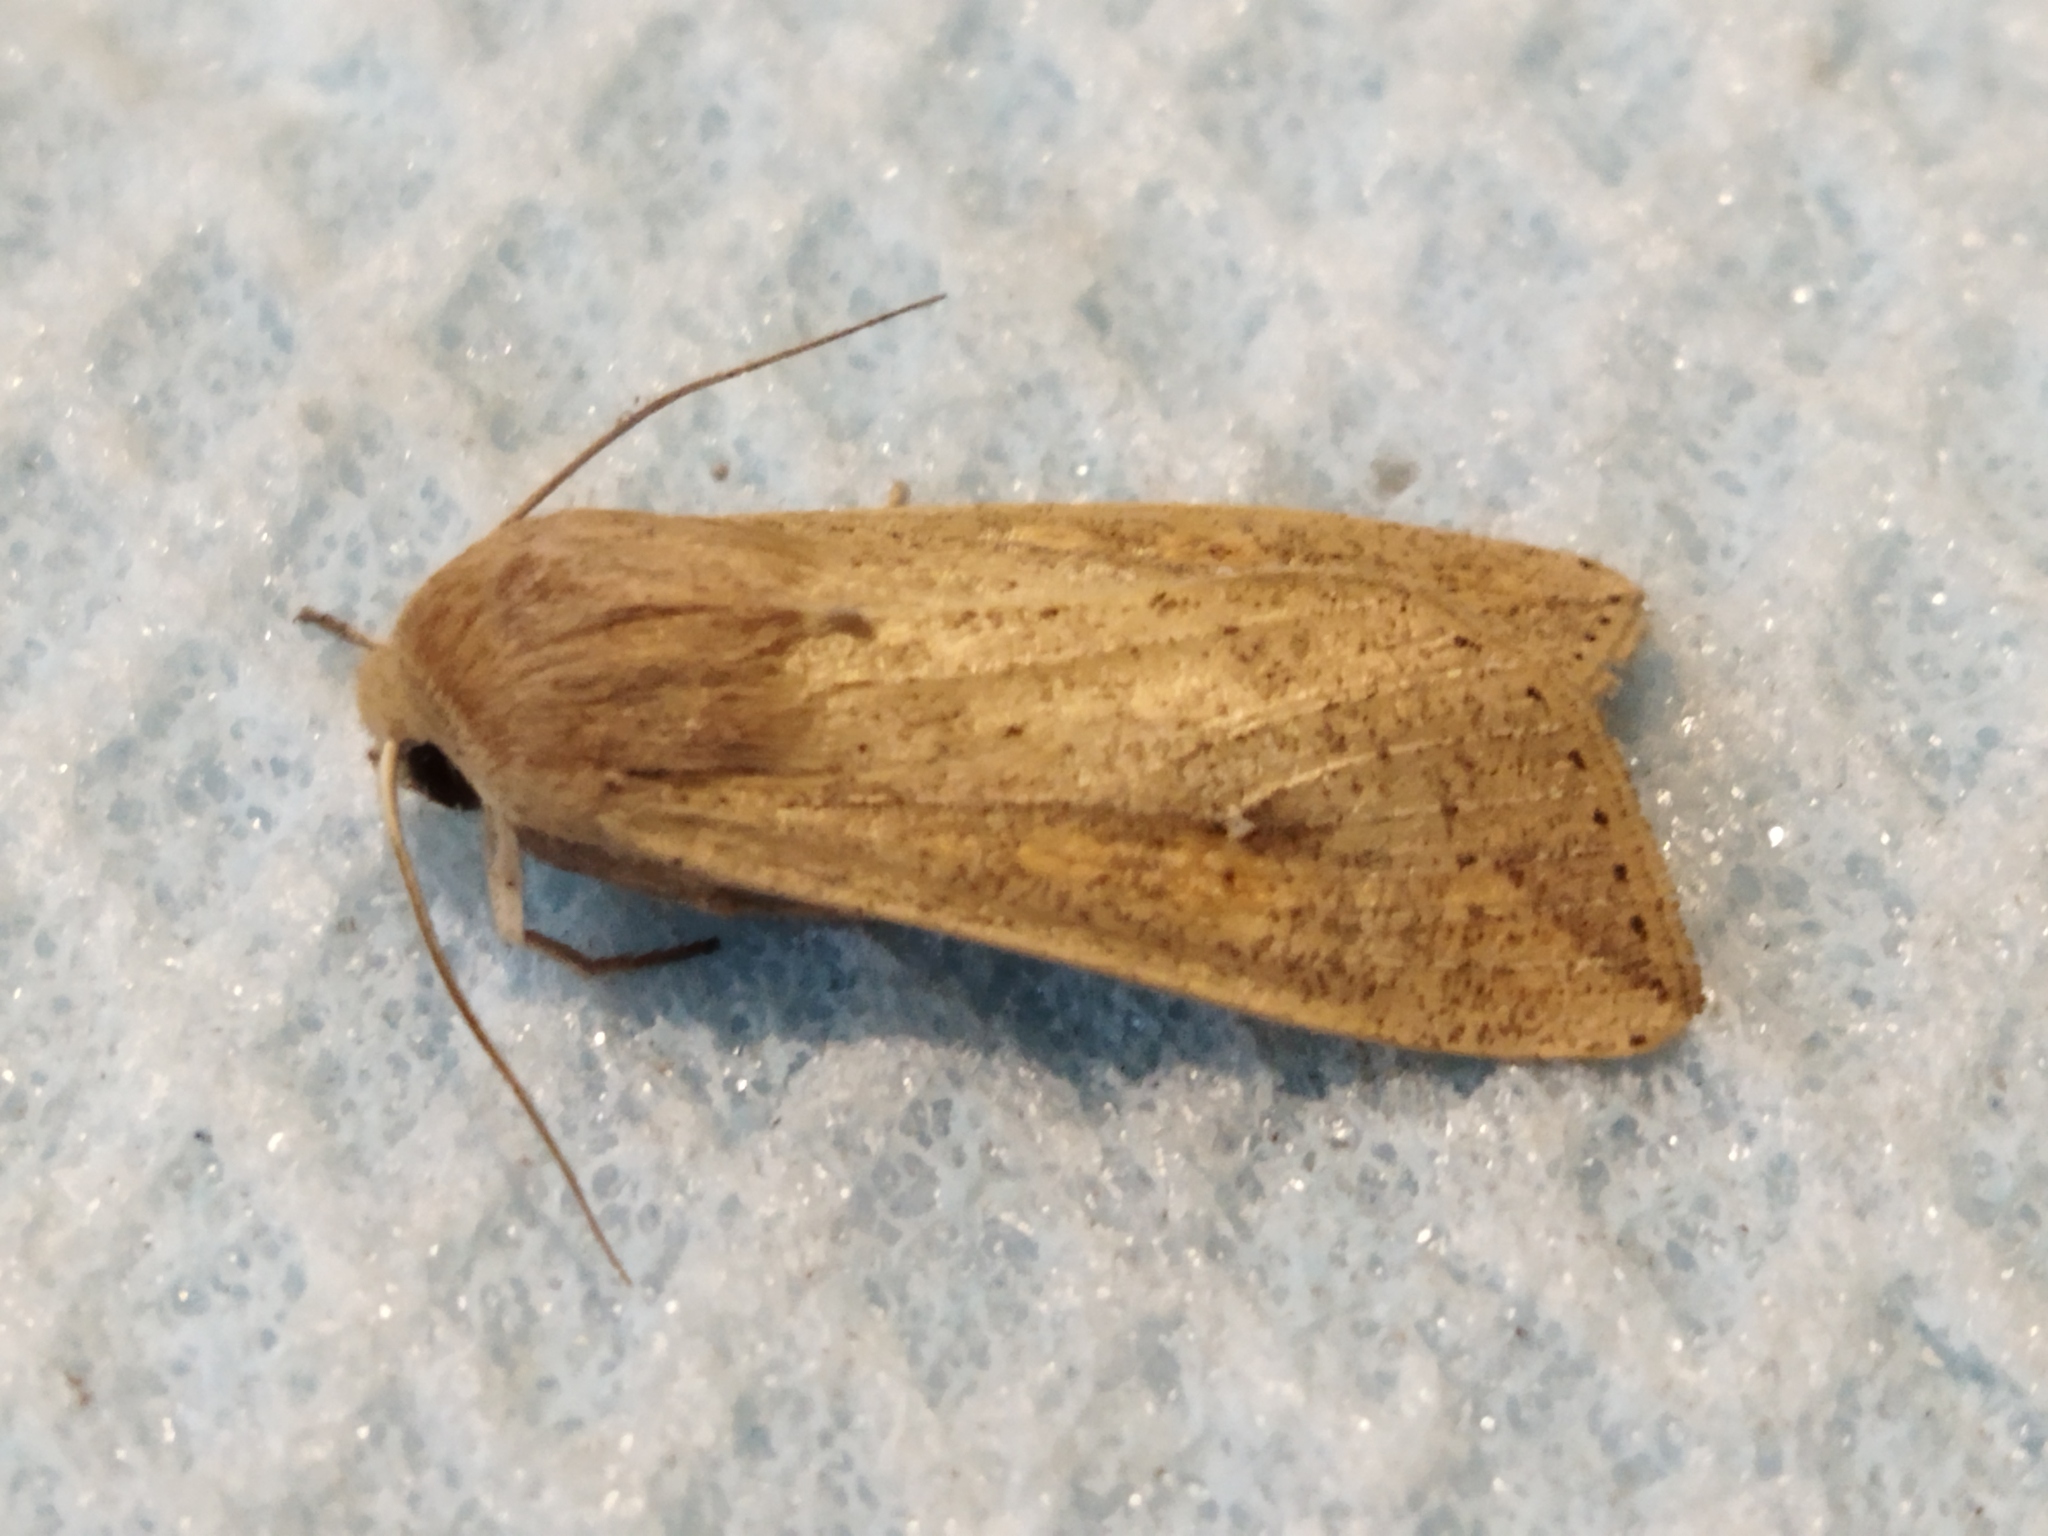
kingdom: Animalia
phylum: Arthropoda
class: Insecta
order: Lepidoptera
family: Noctuidae
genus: Mythimna
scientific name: Mythimna unipuncta
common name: White-speck
